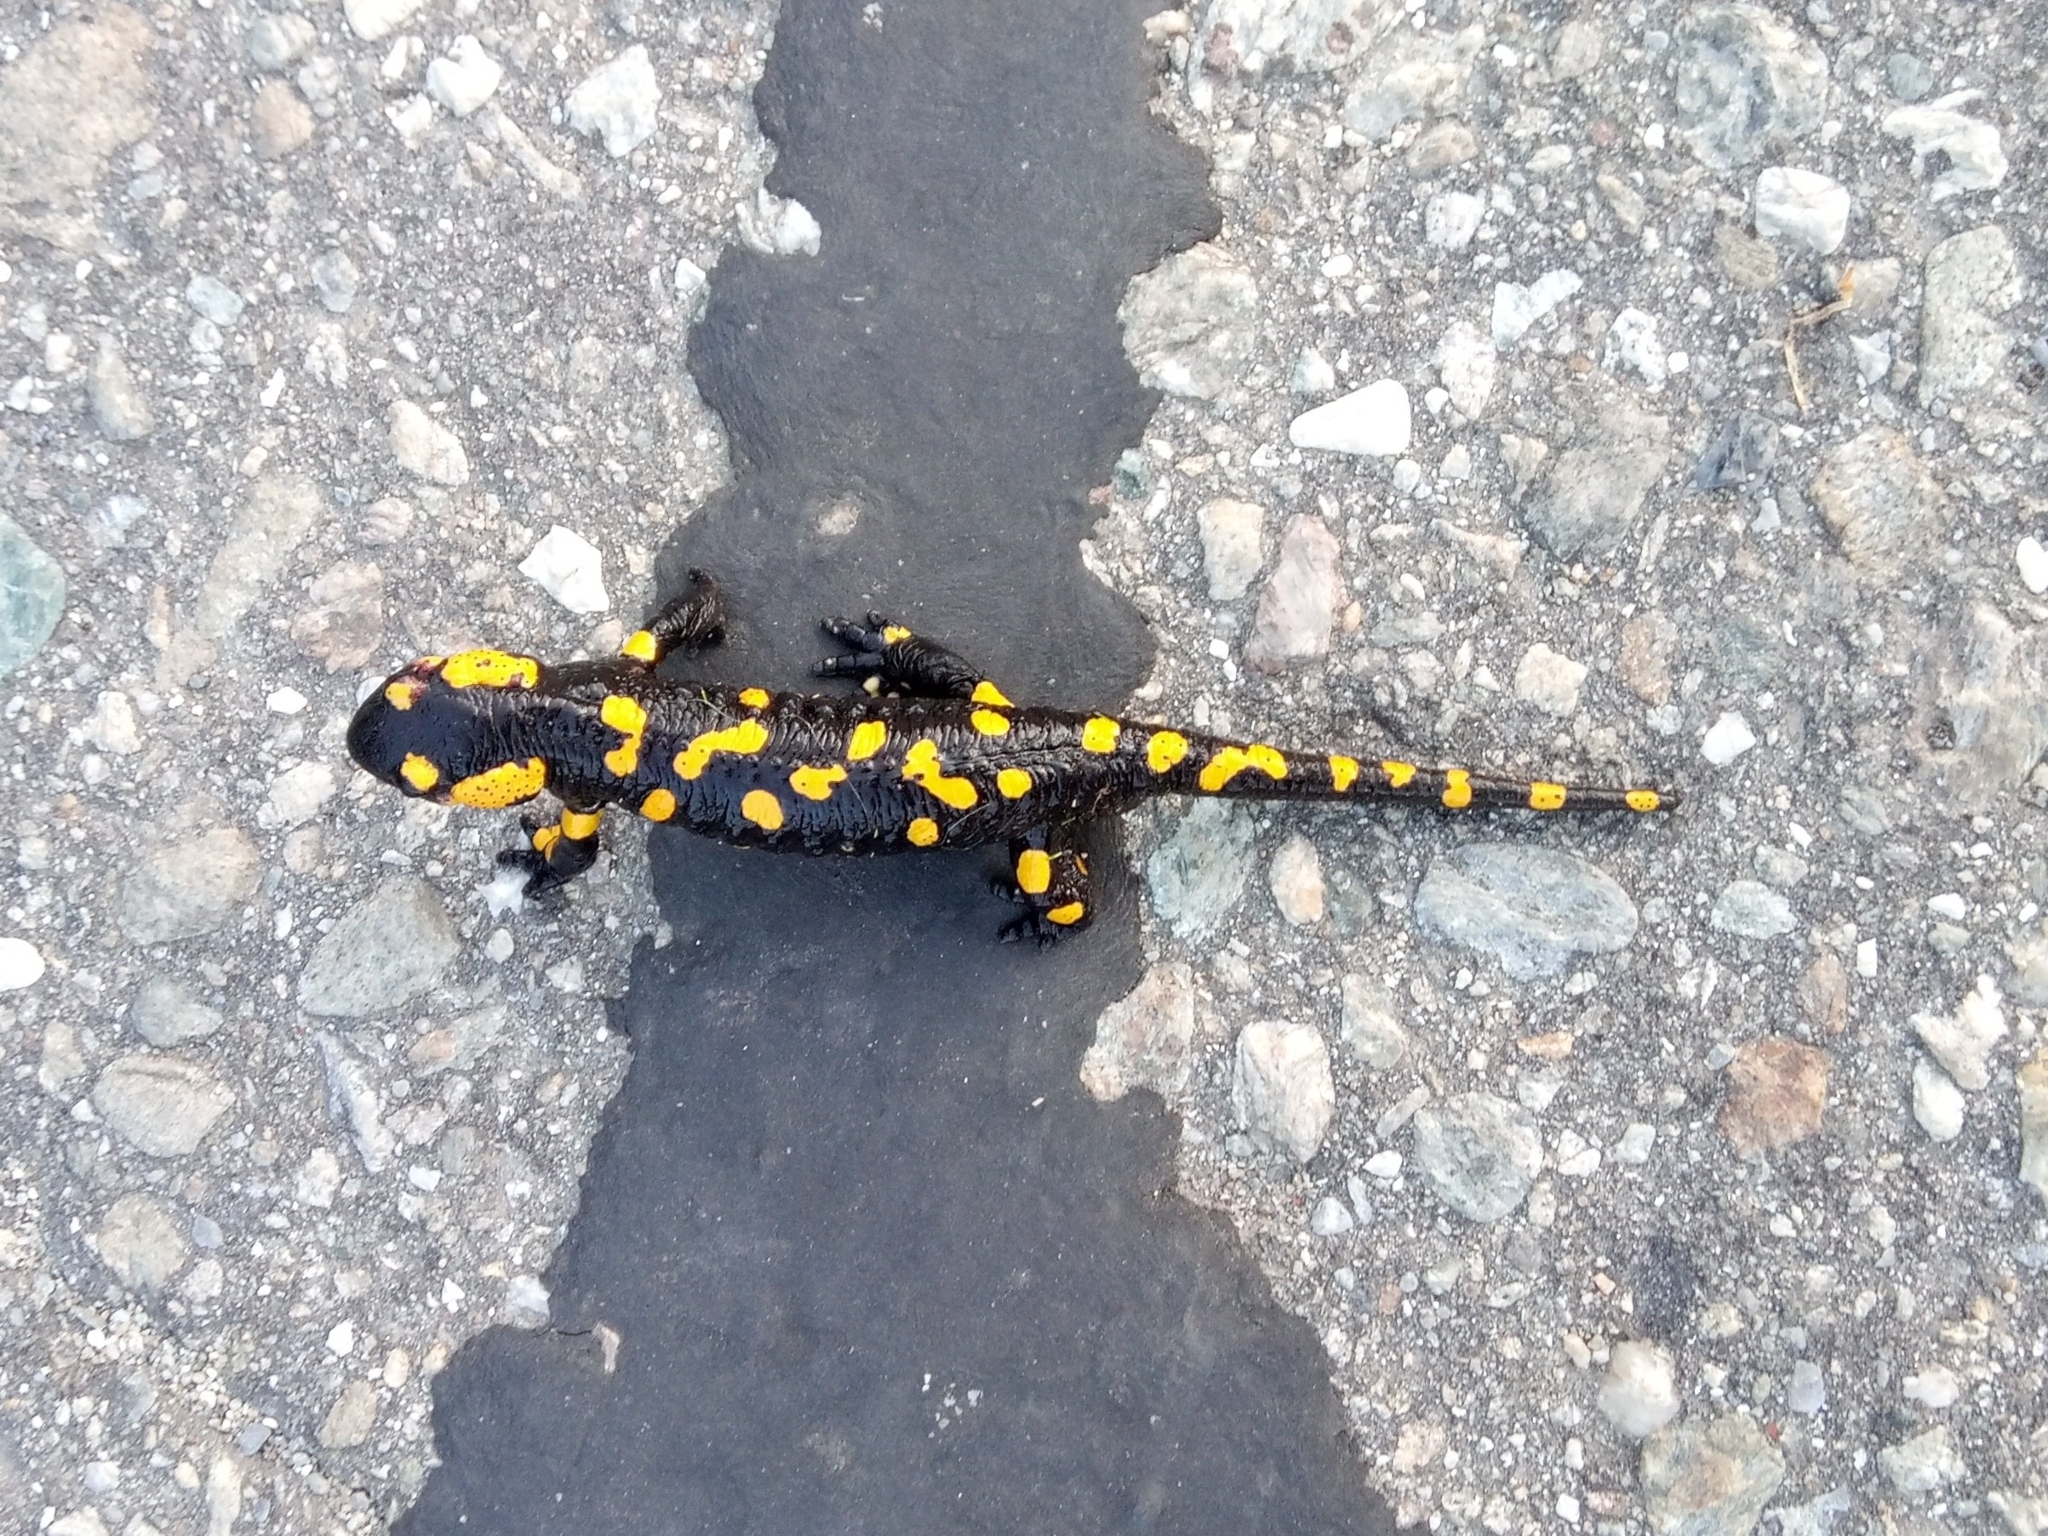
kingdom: Animalia
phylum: Chordata
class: Amphibia
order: Caudata
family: Salamandridae
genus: Salamandra
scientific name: Salamandra salamandra
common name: Fire salamander
